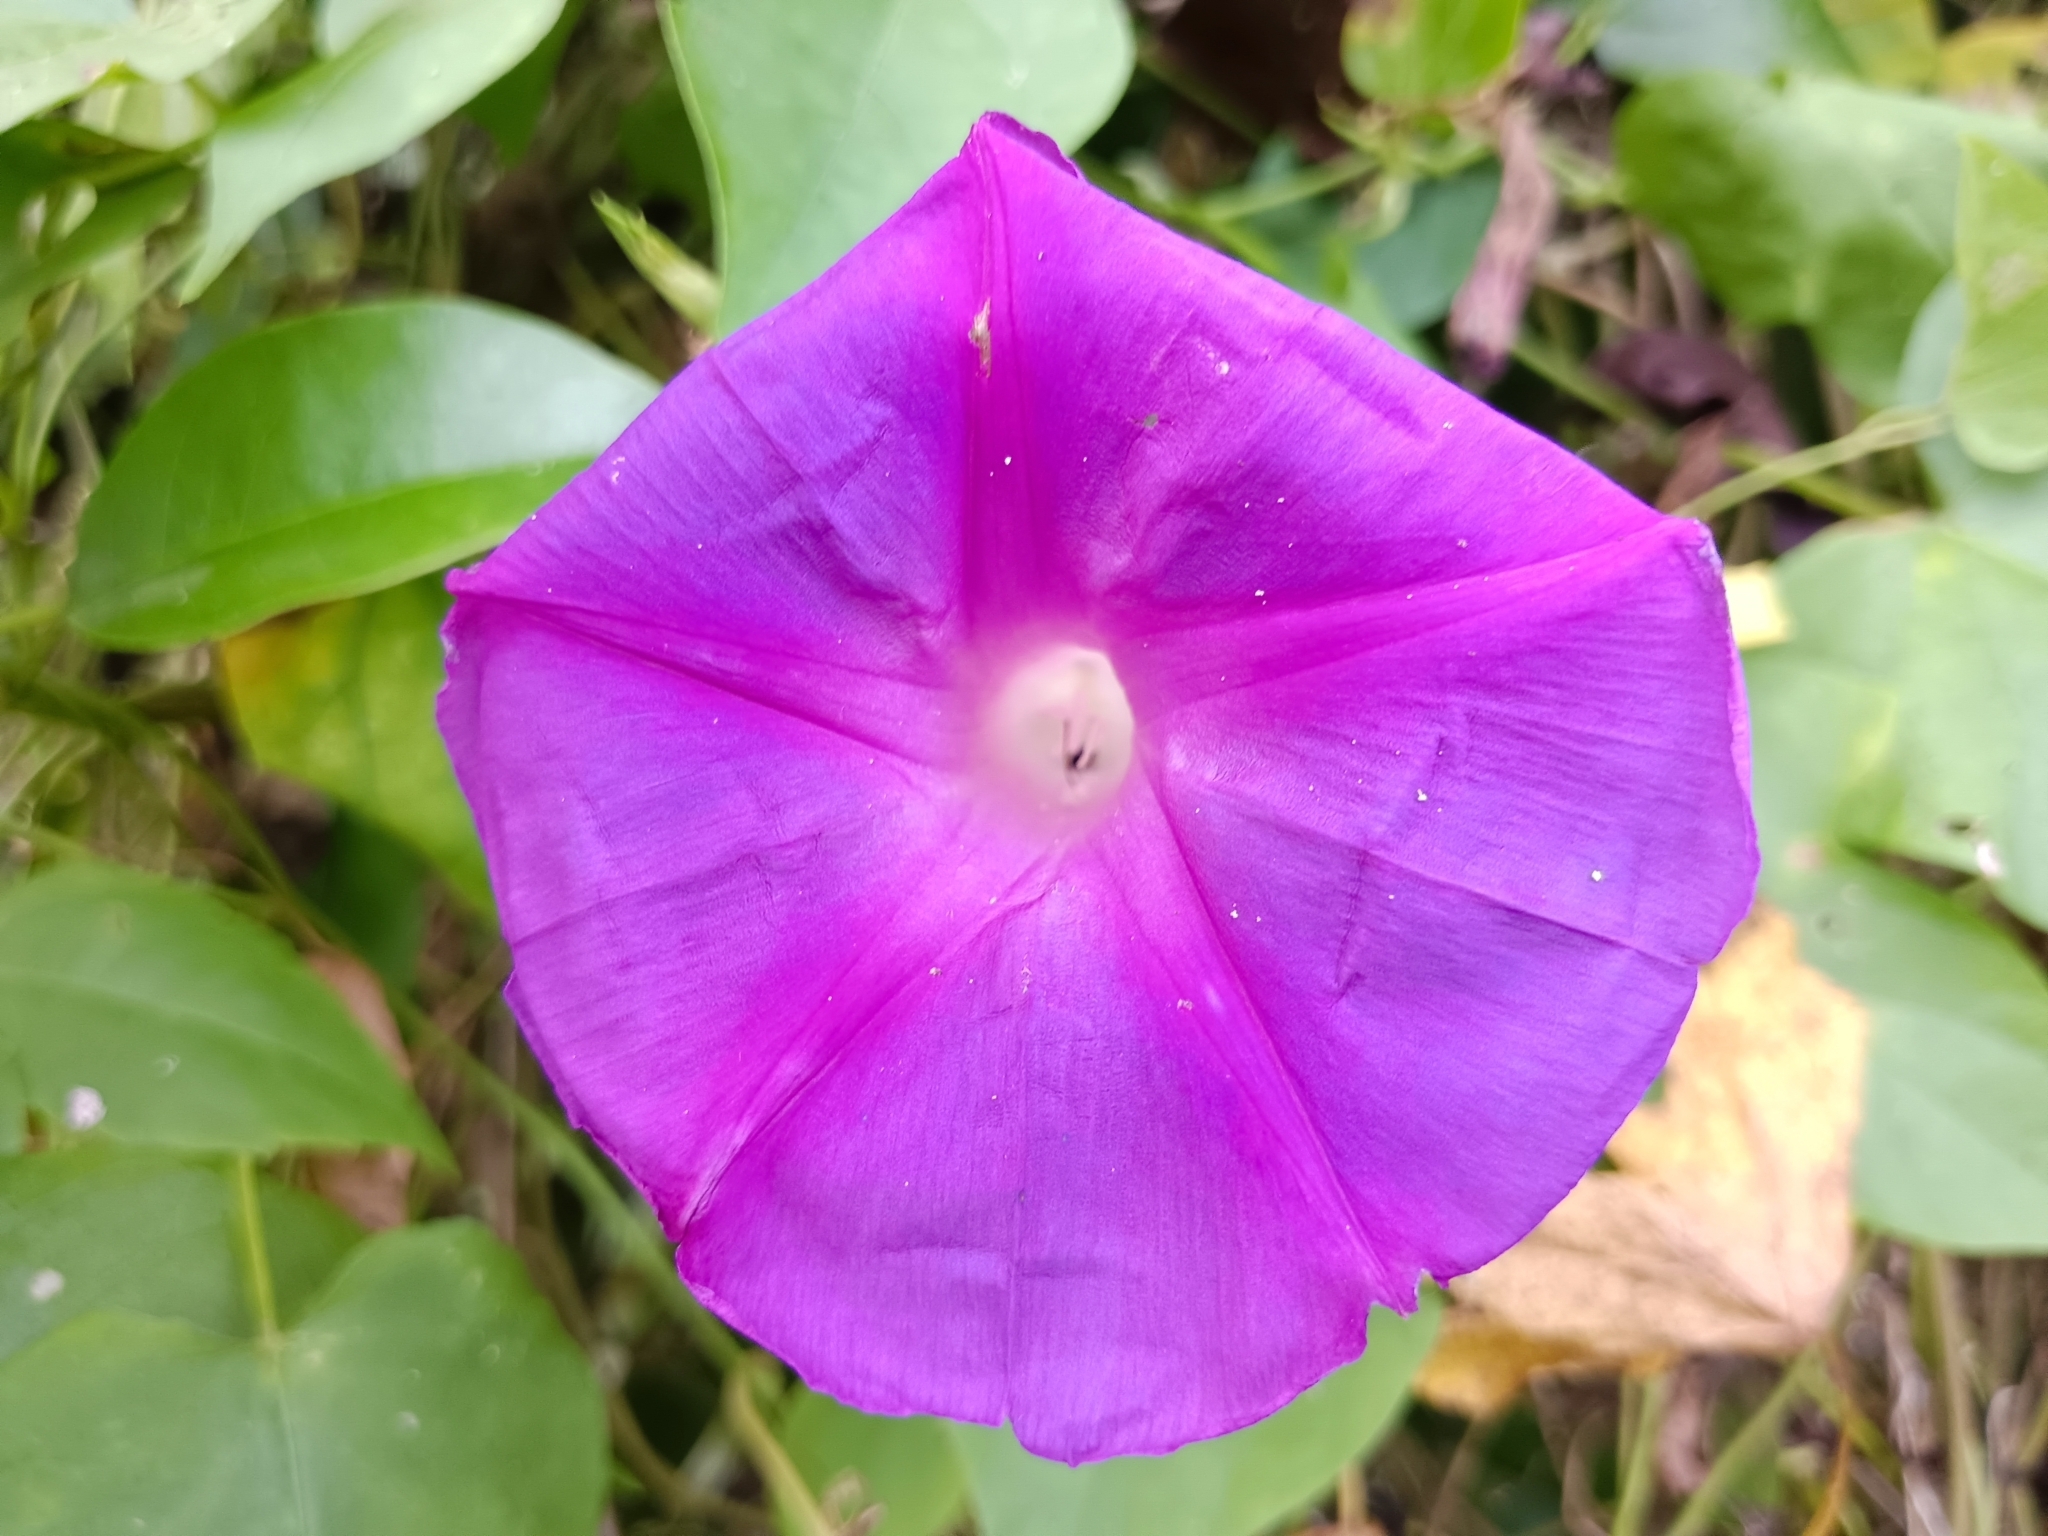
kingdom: Plantae
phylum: Tracheophyta
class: Magnoliopsida
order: Solanales
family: Convolvulaceae
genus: Ipomoea
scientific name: Ipomoea indica
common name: Blue dawnflower
